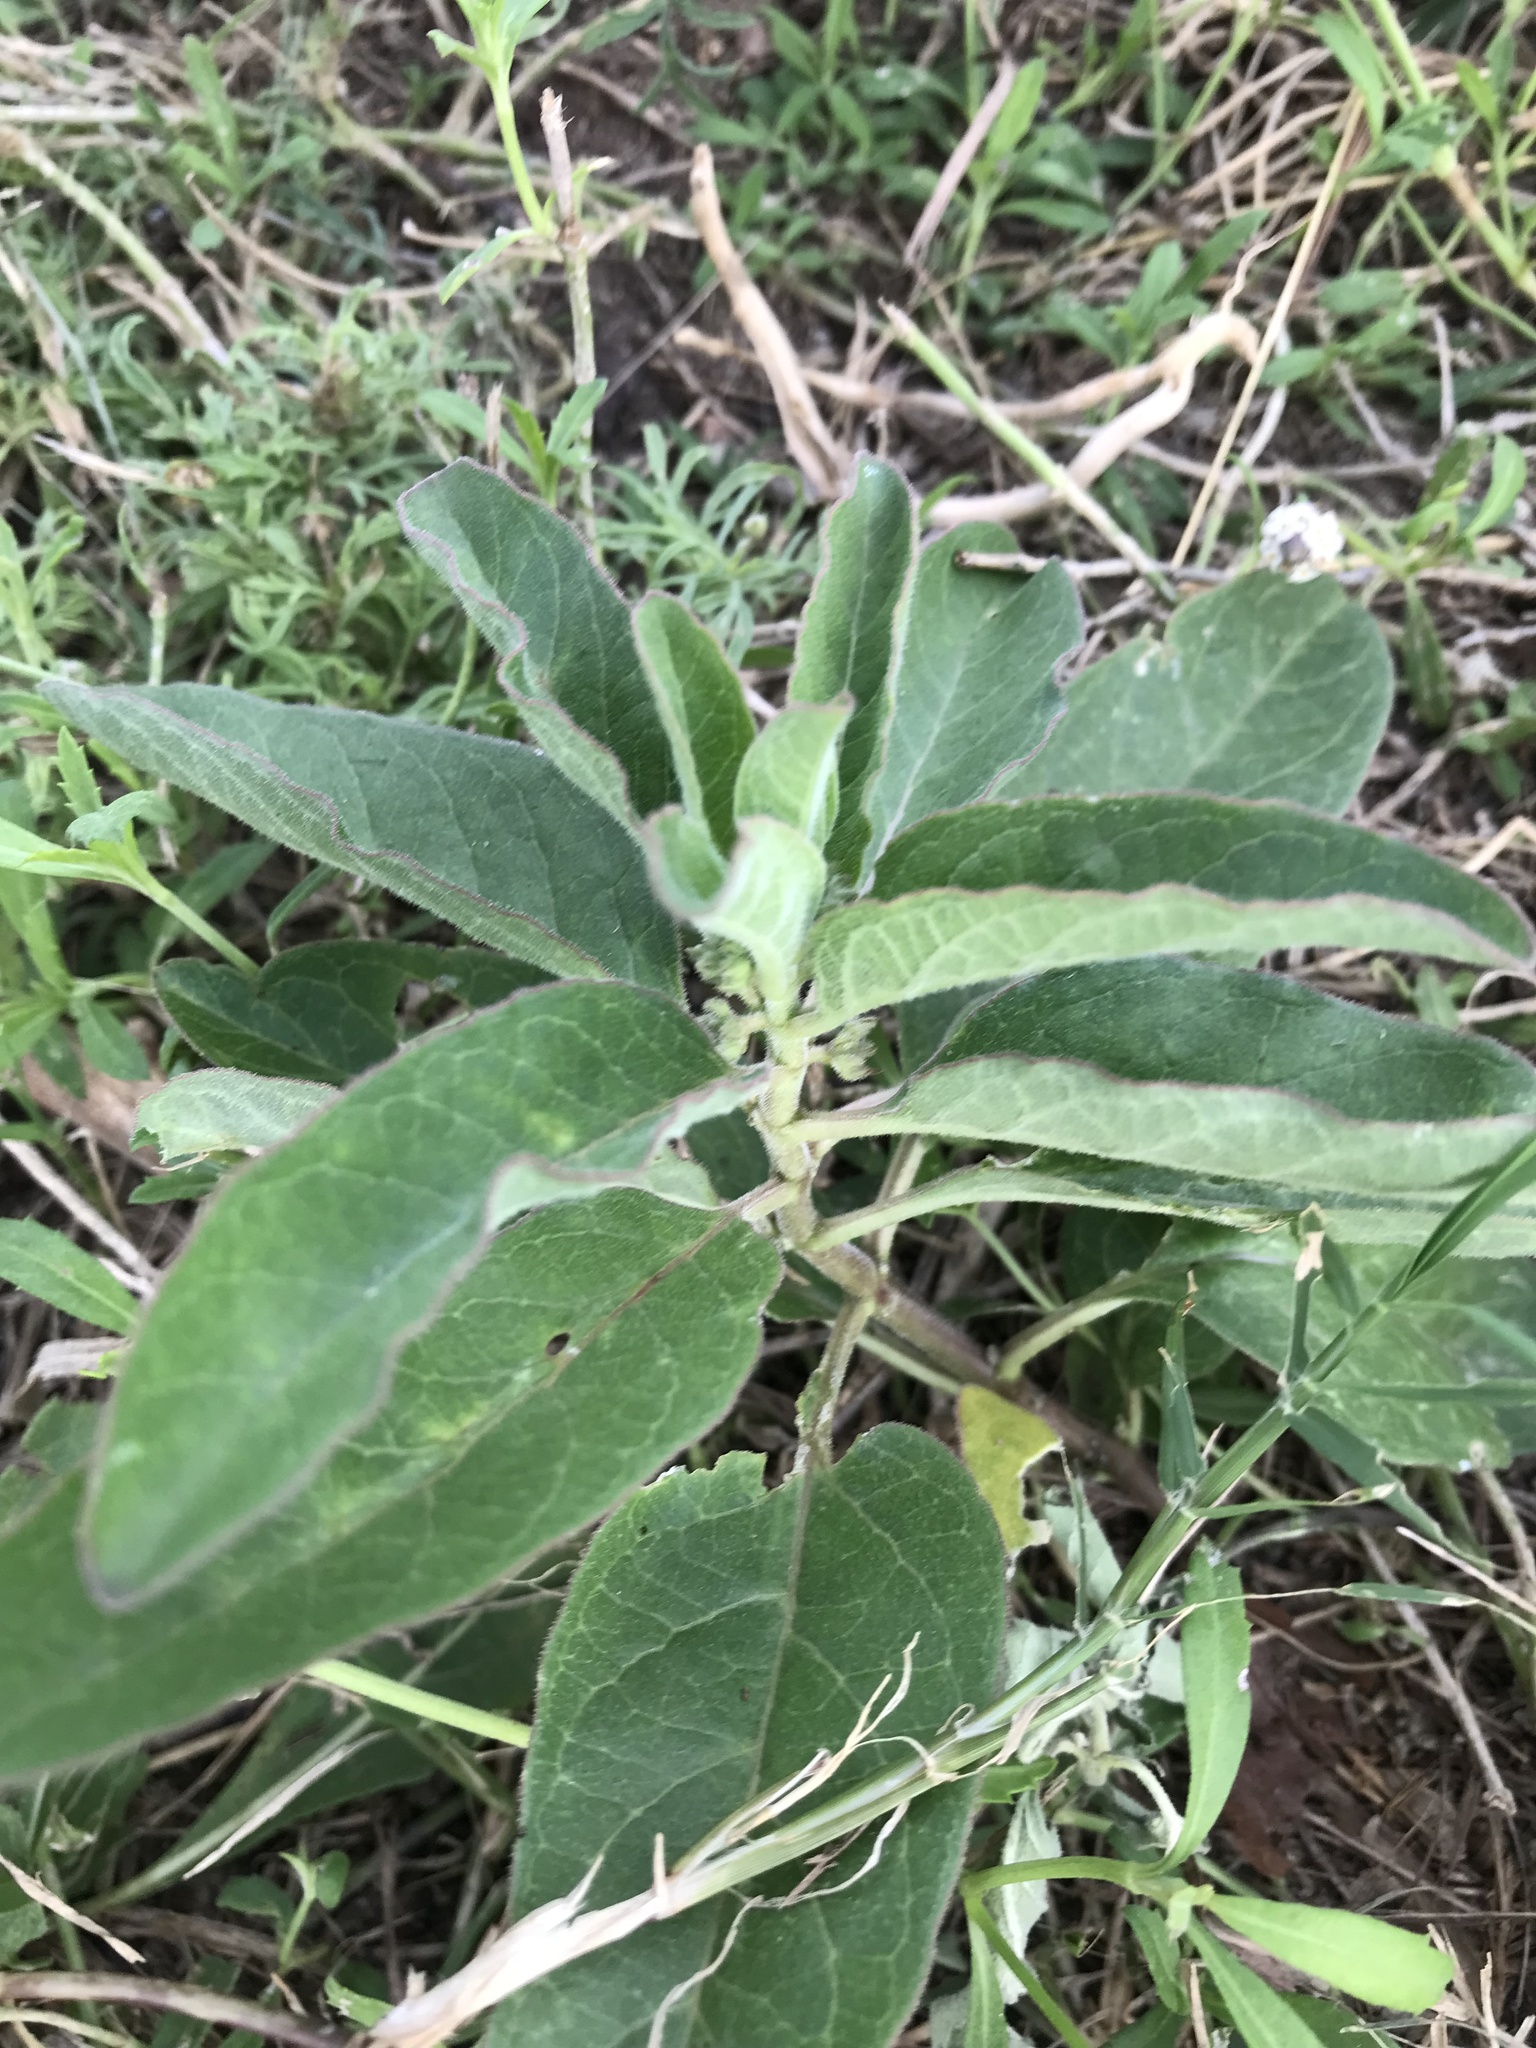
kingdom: Plantae
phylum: Tracheophyta
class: Magnoliopsida
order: Gentianales
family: Apocynaceae
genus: Asclepias
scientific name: Asclepias oenotheroides
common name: Zizotes milkweed
